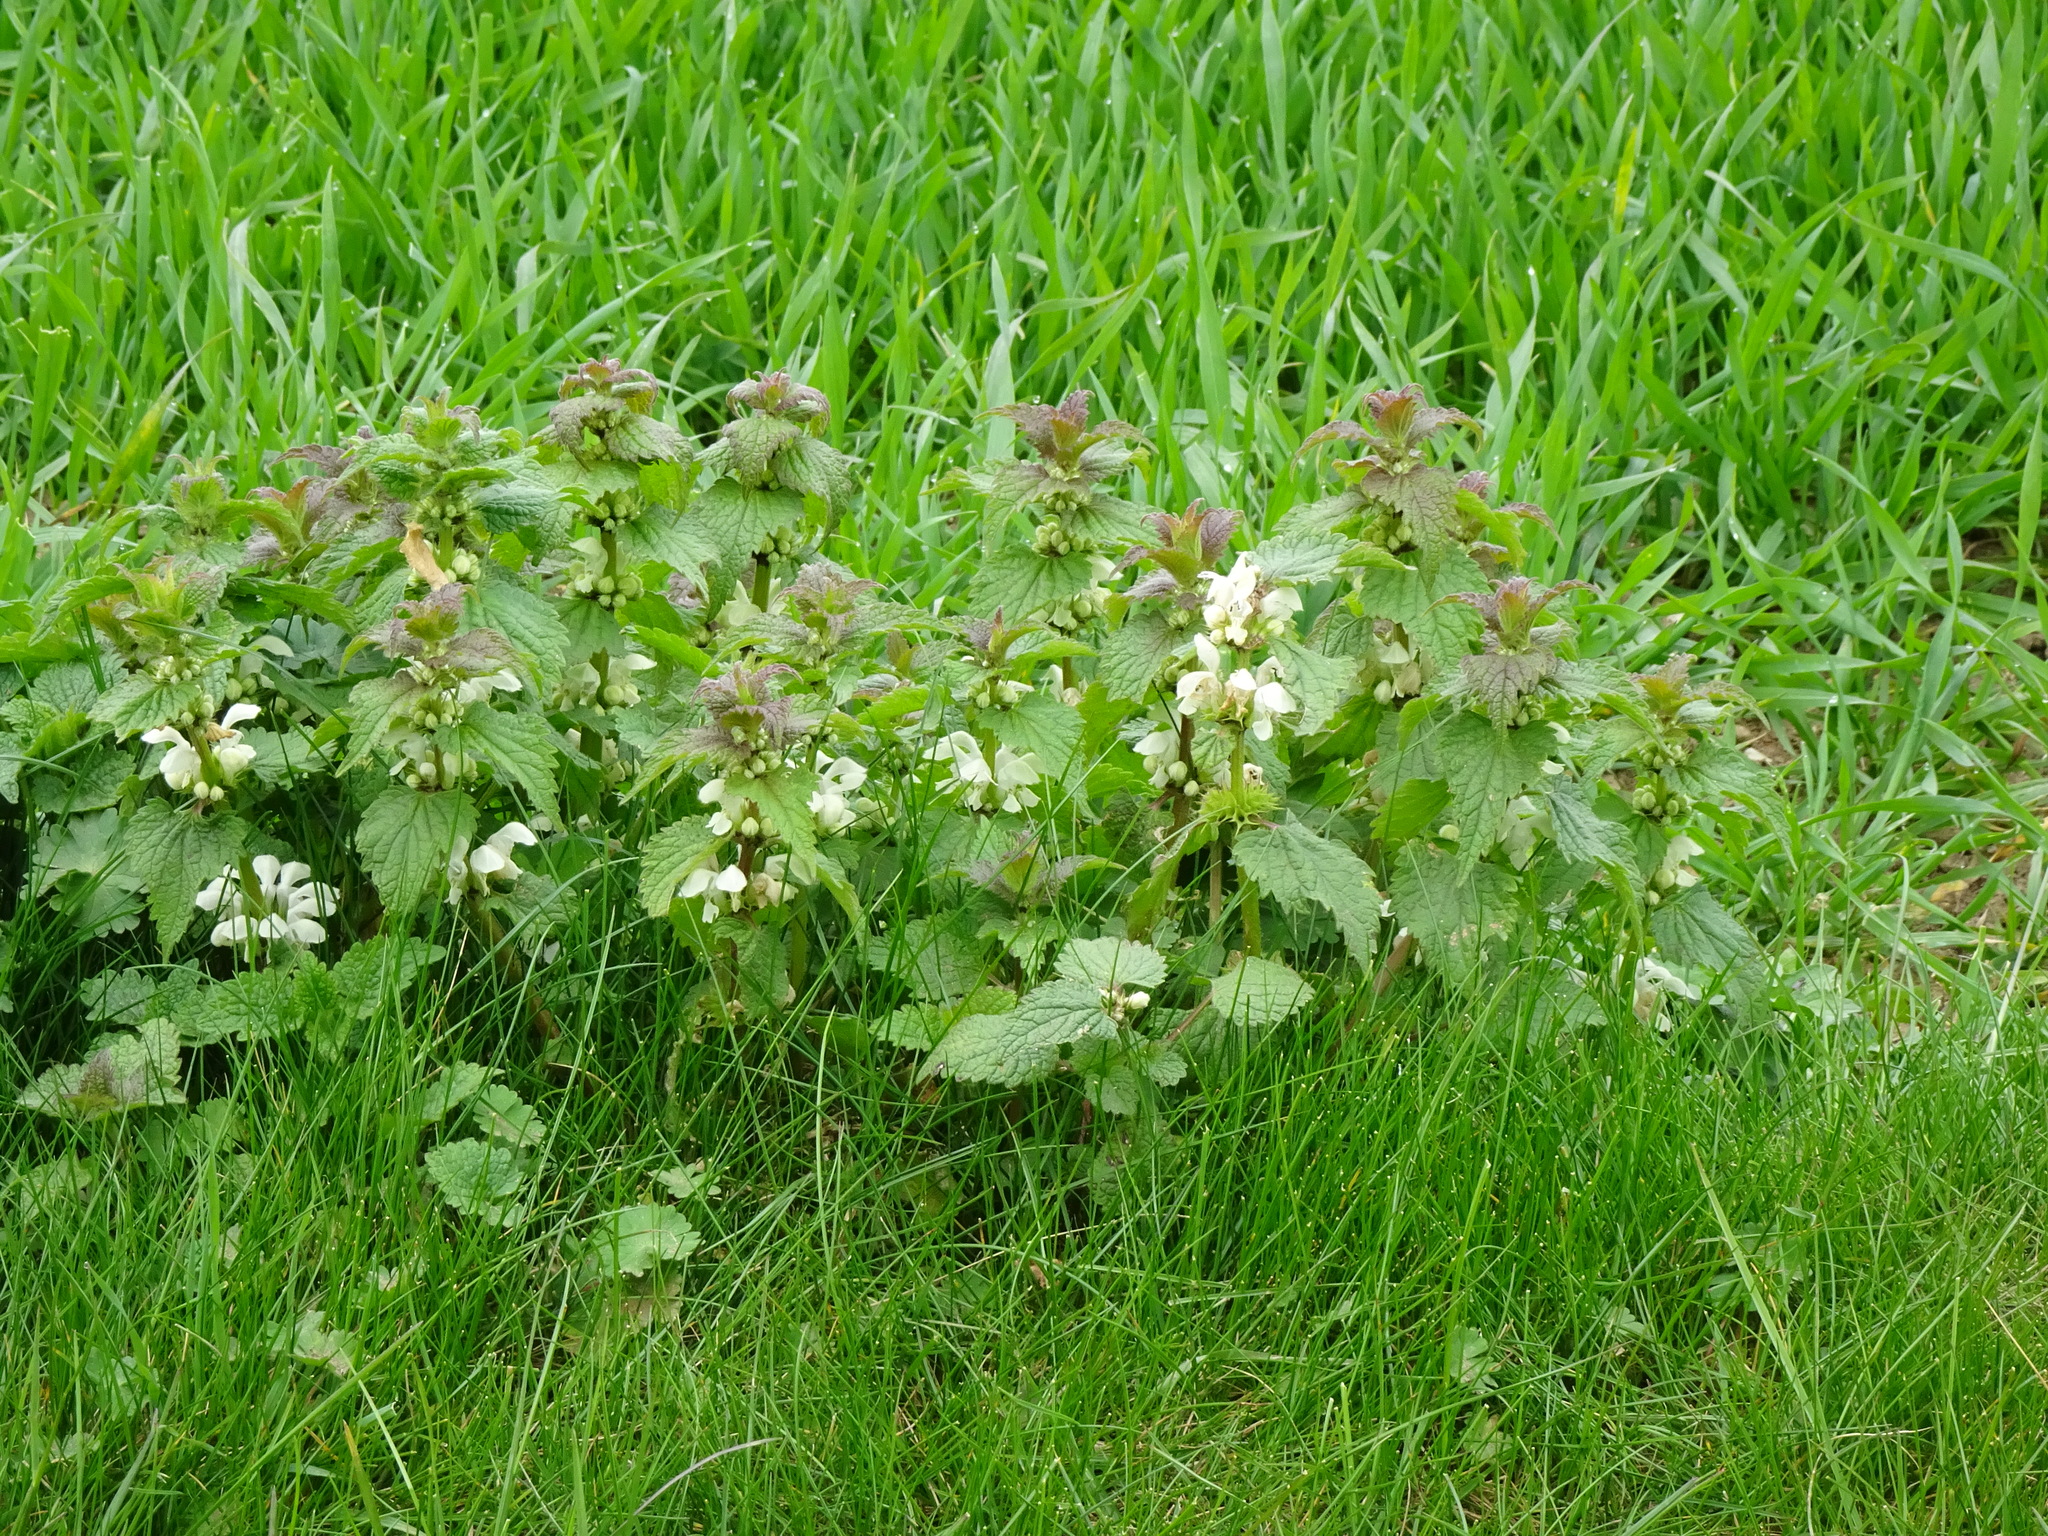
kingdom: Plantae
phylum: Tracheophyta
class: Magnoliopsida
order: Lamiales
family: Lamiaceae
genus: Lamium
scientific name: Lamium album
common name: White dead-nettle
